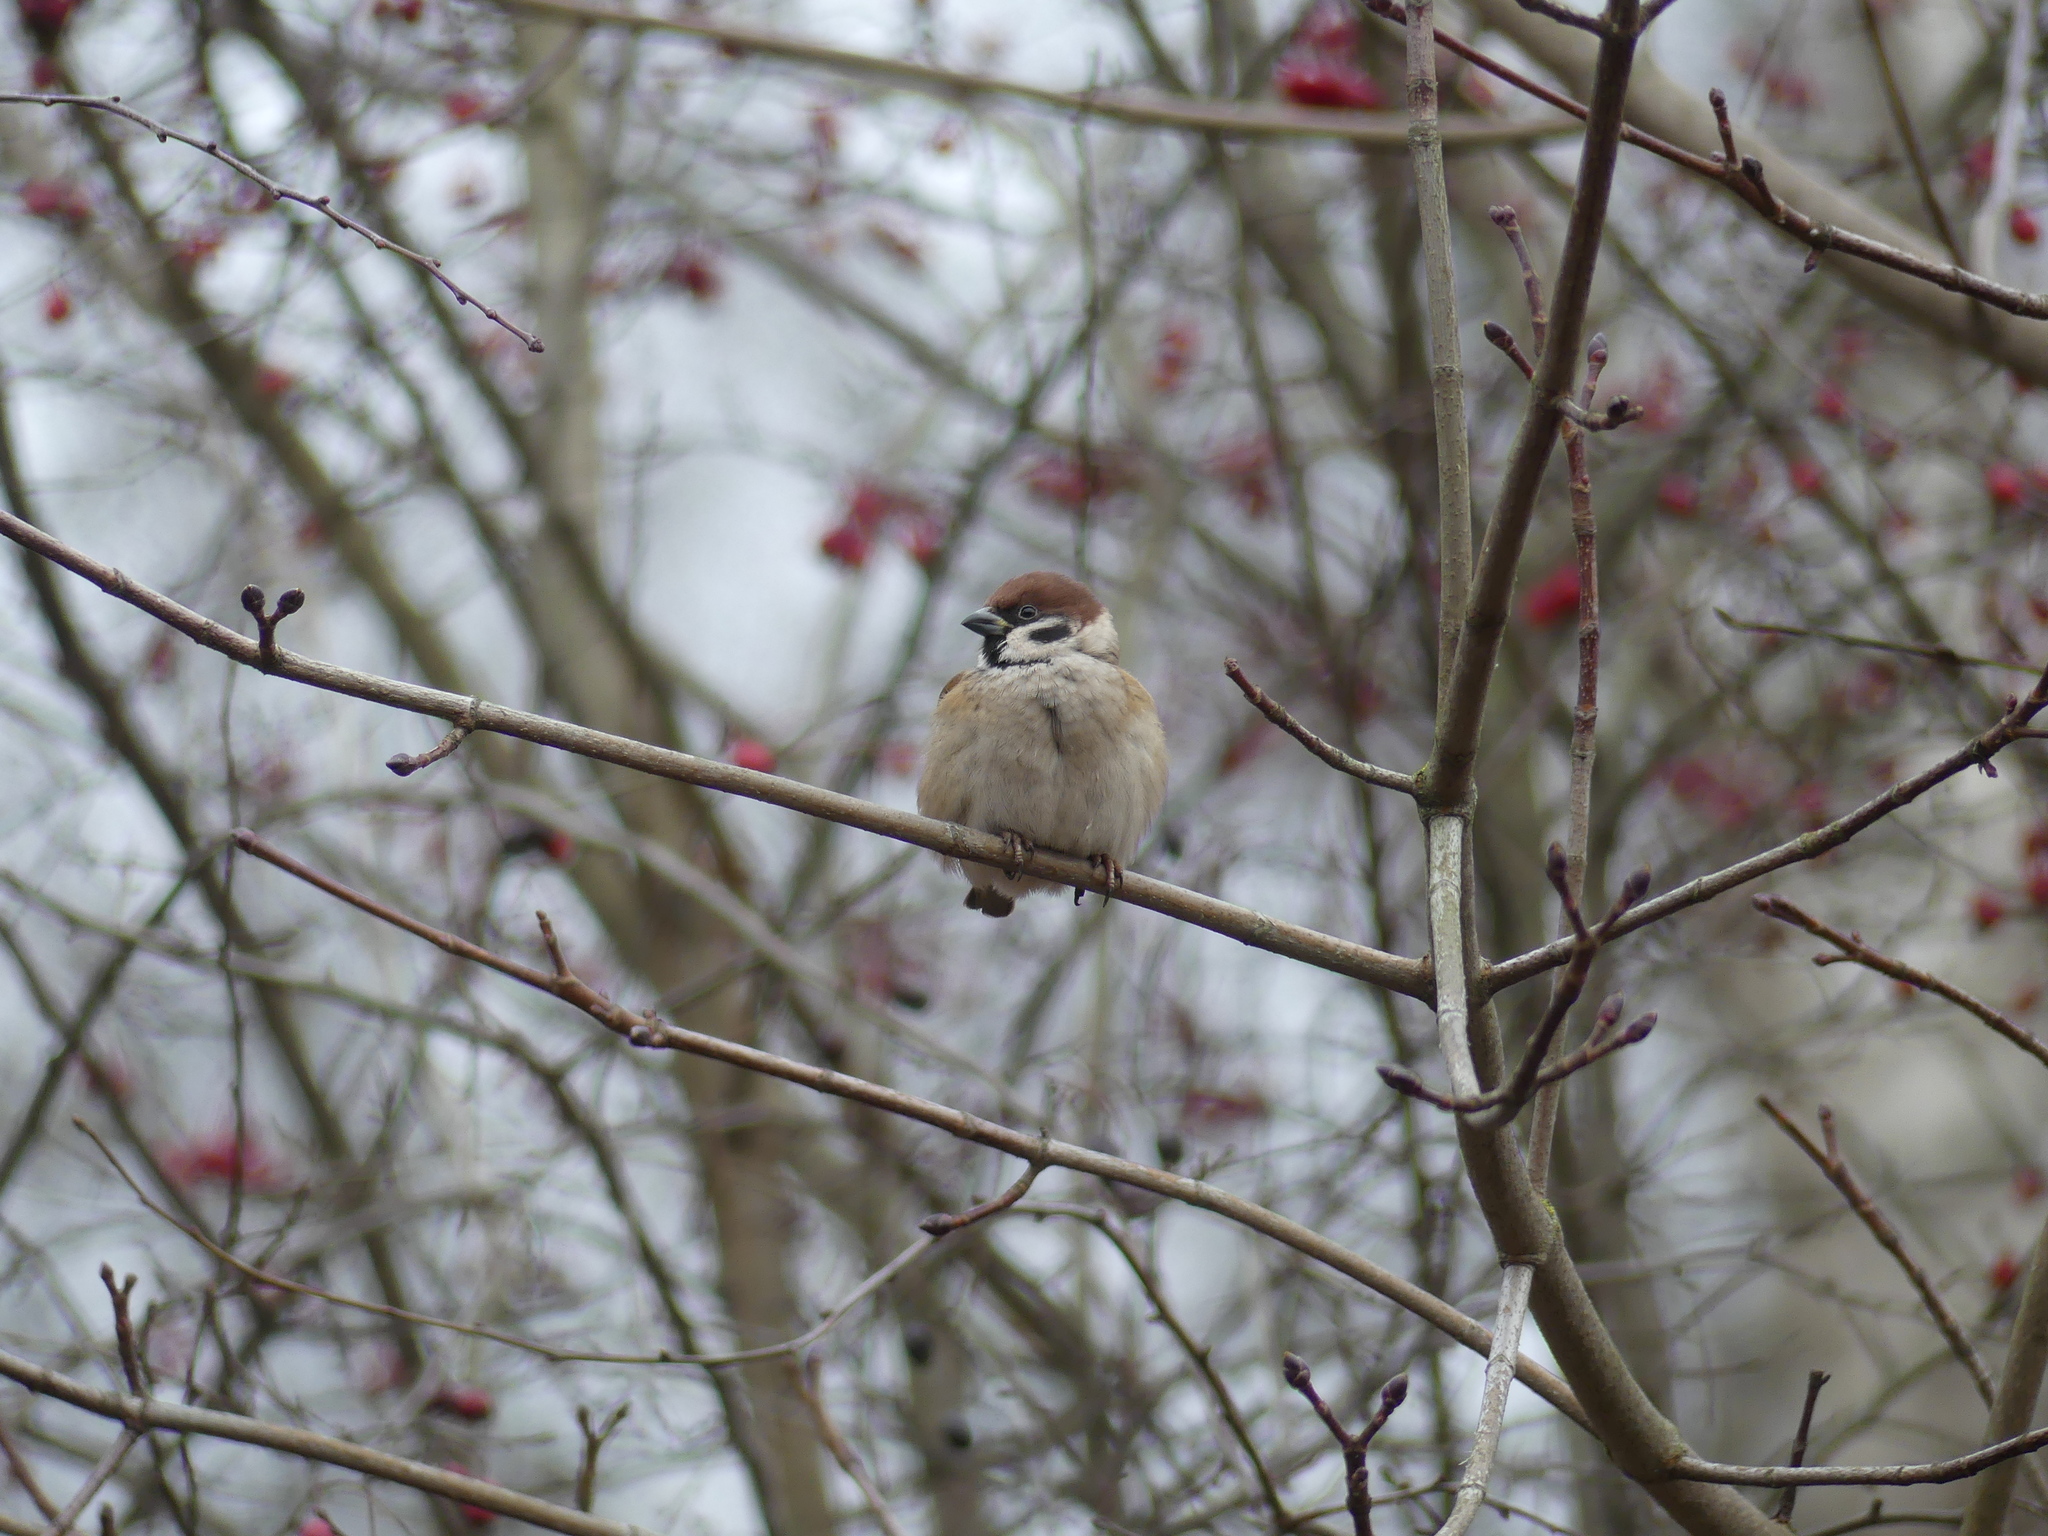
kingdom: Animalia
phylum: Chordata
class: Aves
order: Passeriformes
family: Passeridae
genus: Passer
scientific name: Passer montanus
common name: Eurasian tree sparrow
